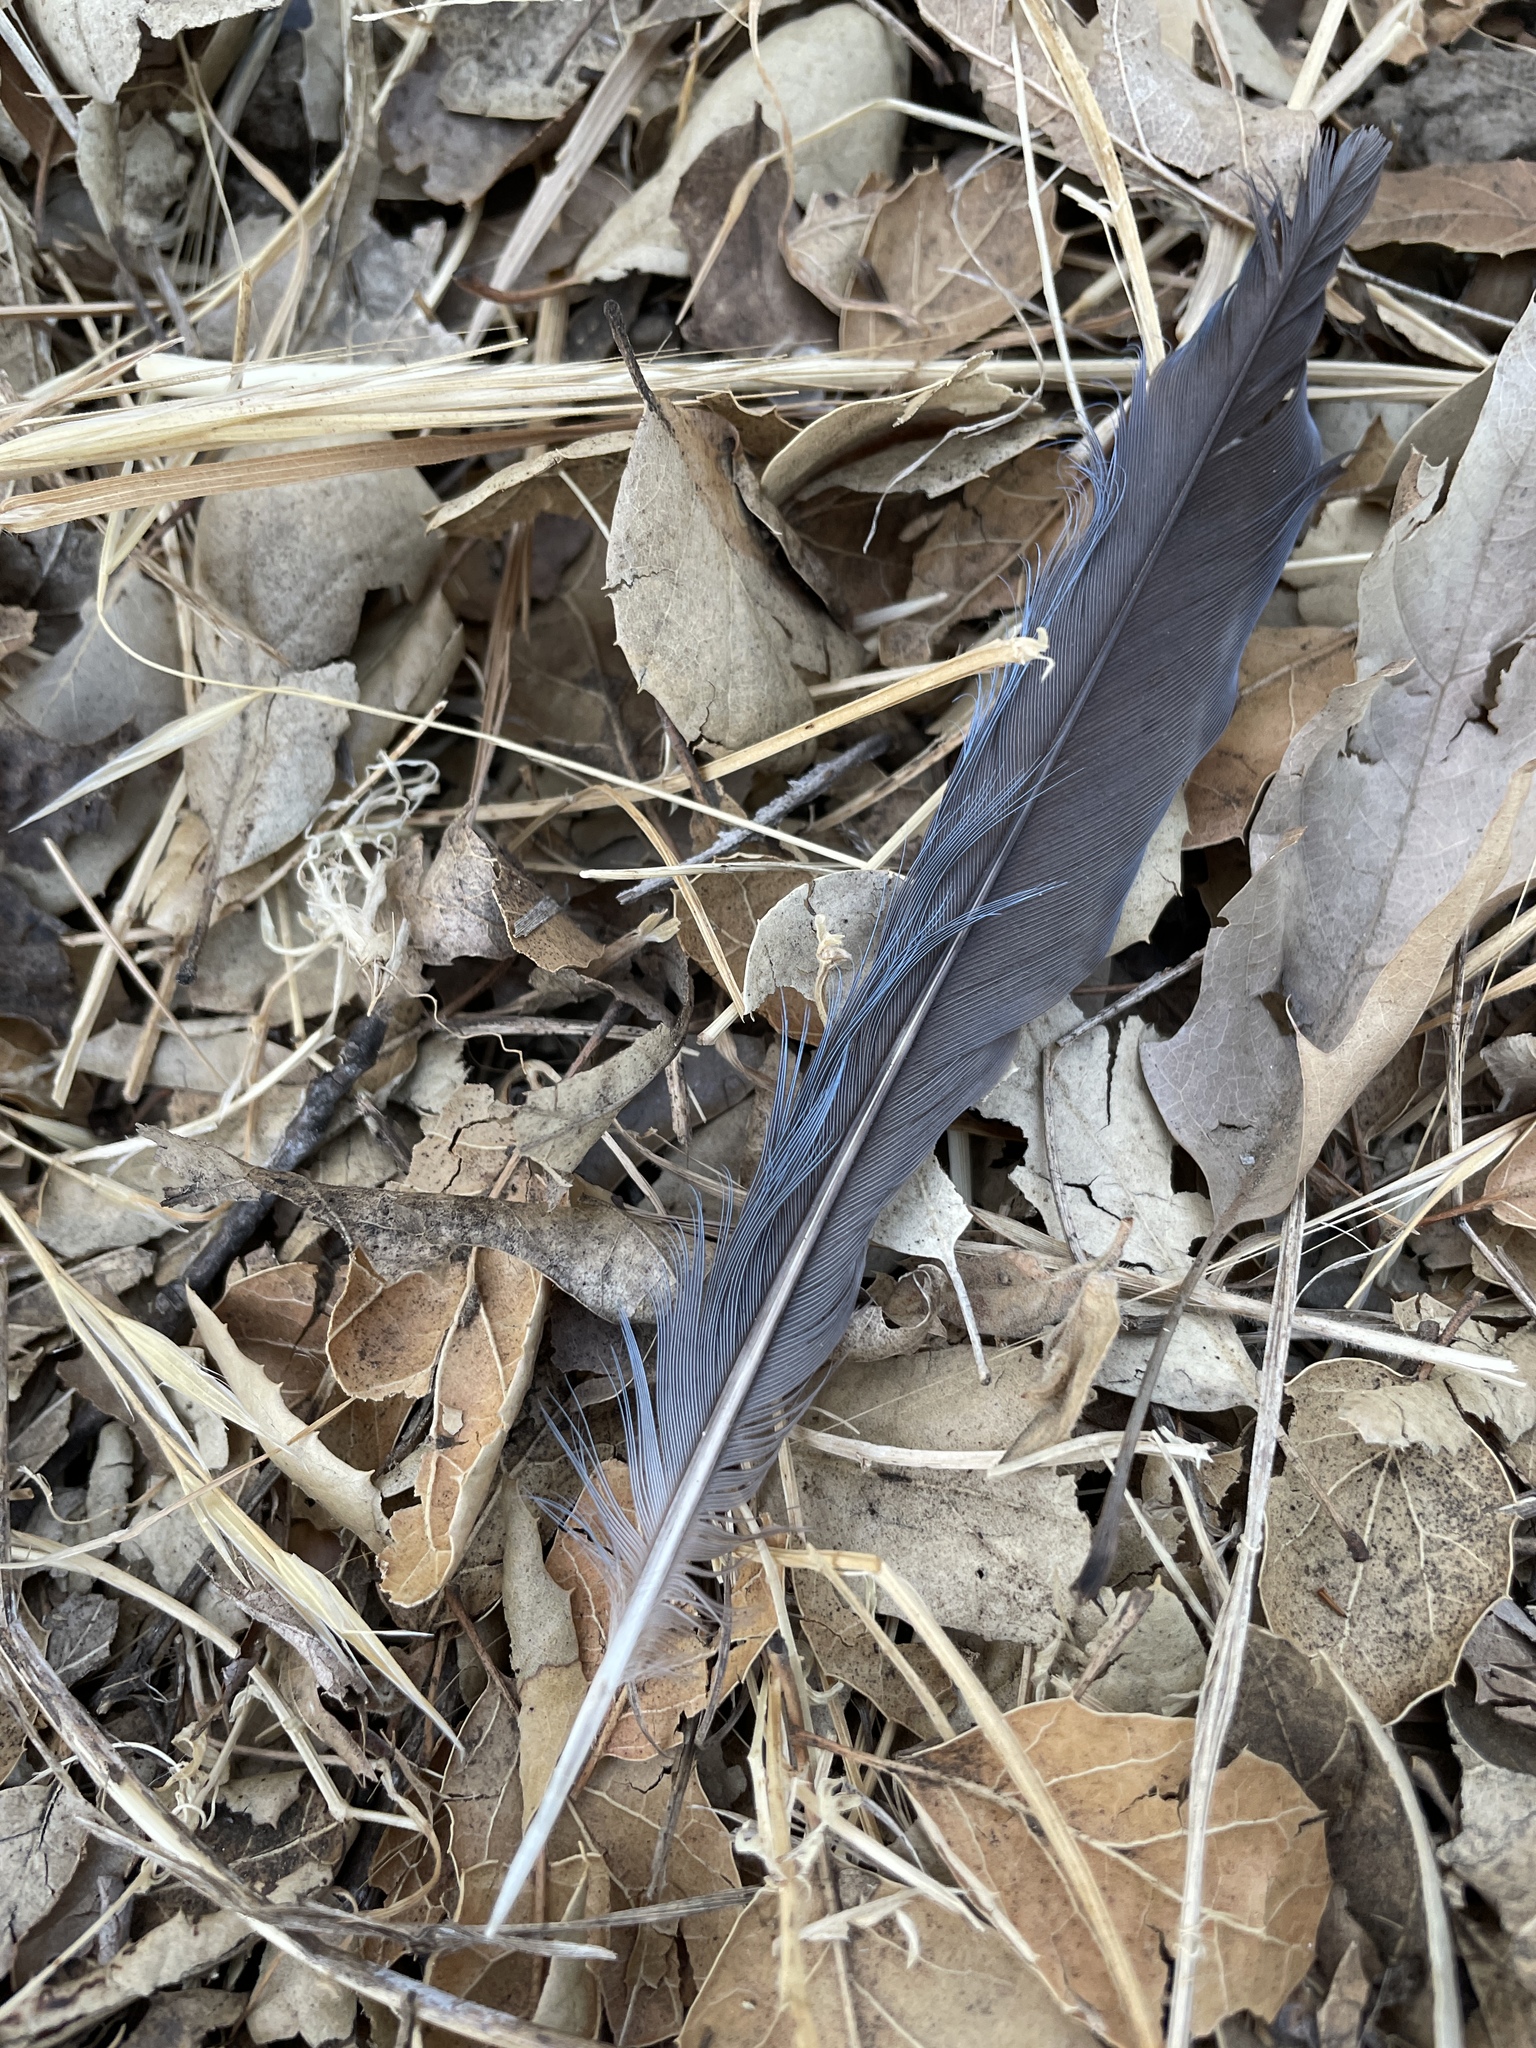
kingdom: Animalia
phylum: Chordata
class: Aves
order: Passeriformes
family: Corvidae
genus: Aphelocoma
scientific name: Aphelocoma californica
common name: California scrub-jay
